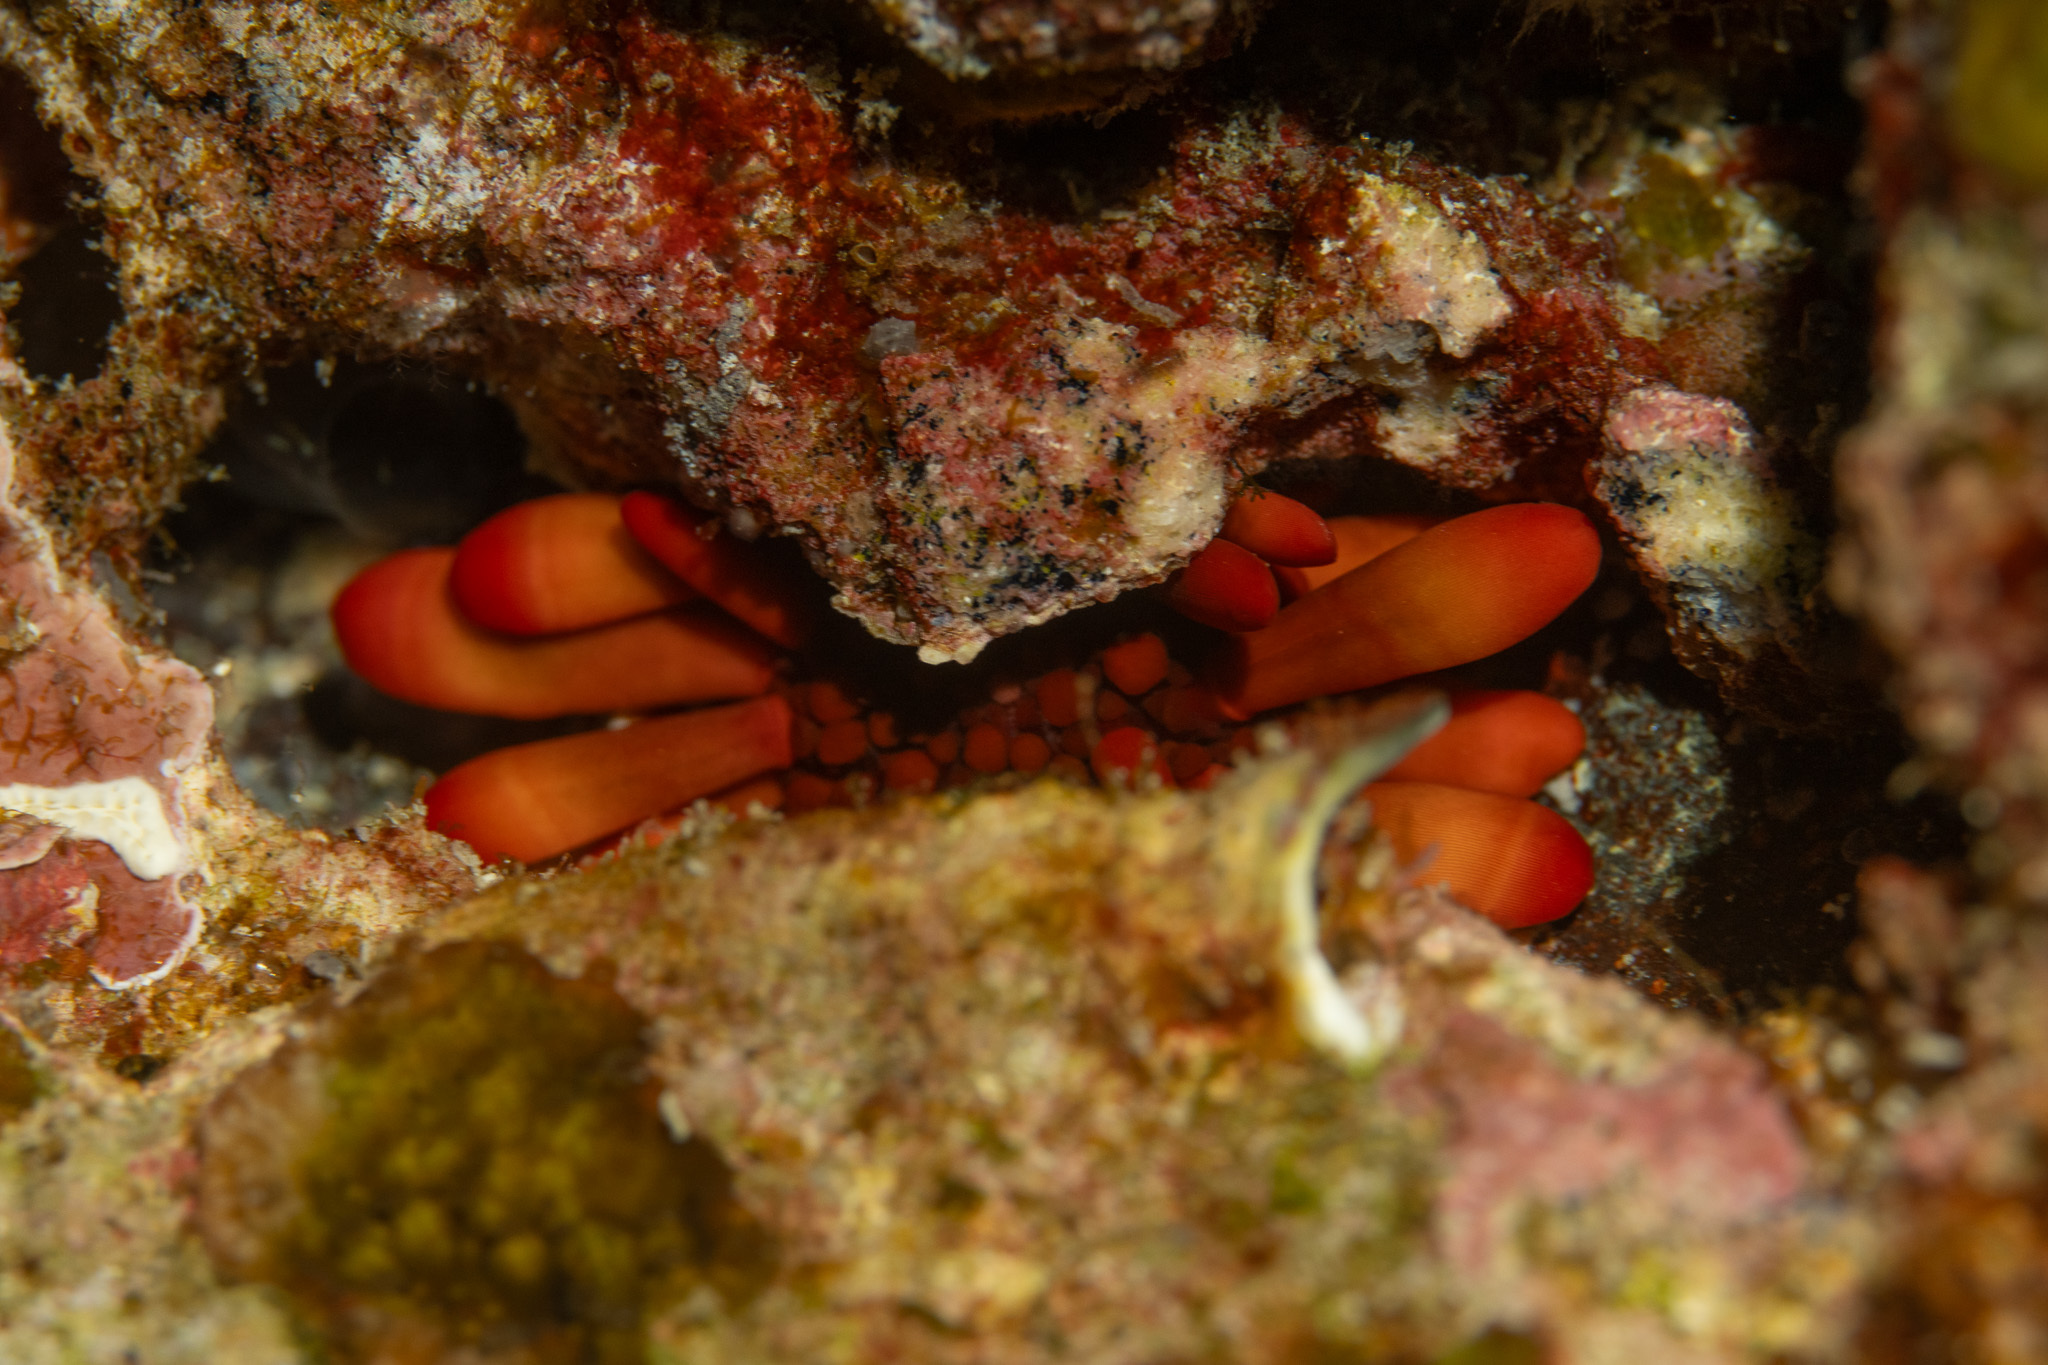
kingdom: Animalia
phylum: Echinodermata
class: Echinoidea
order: Camarodonta
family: Echinometridae
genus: Heterocentrotus
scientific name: Heterocentrotus mamillatus
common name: Slate pencil urchin
